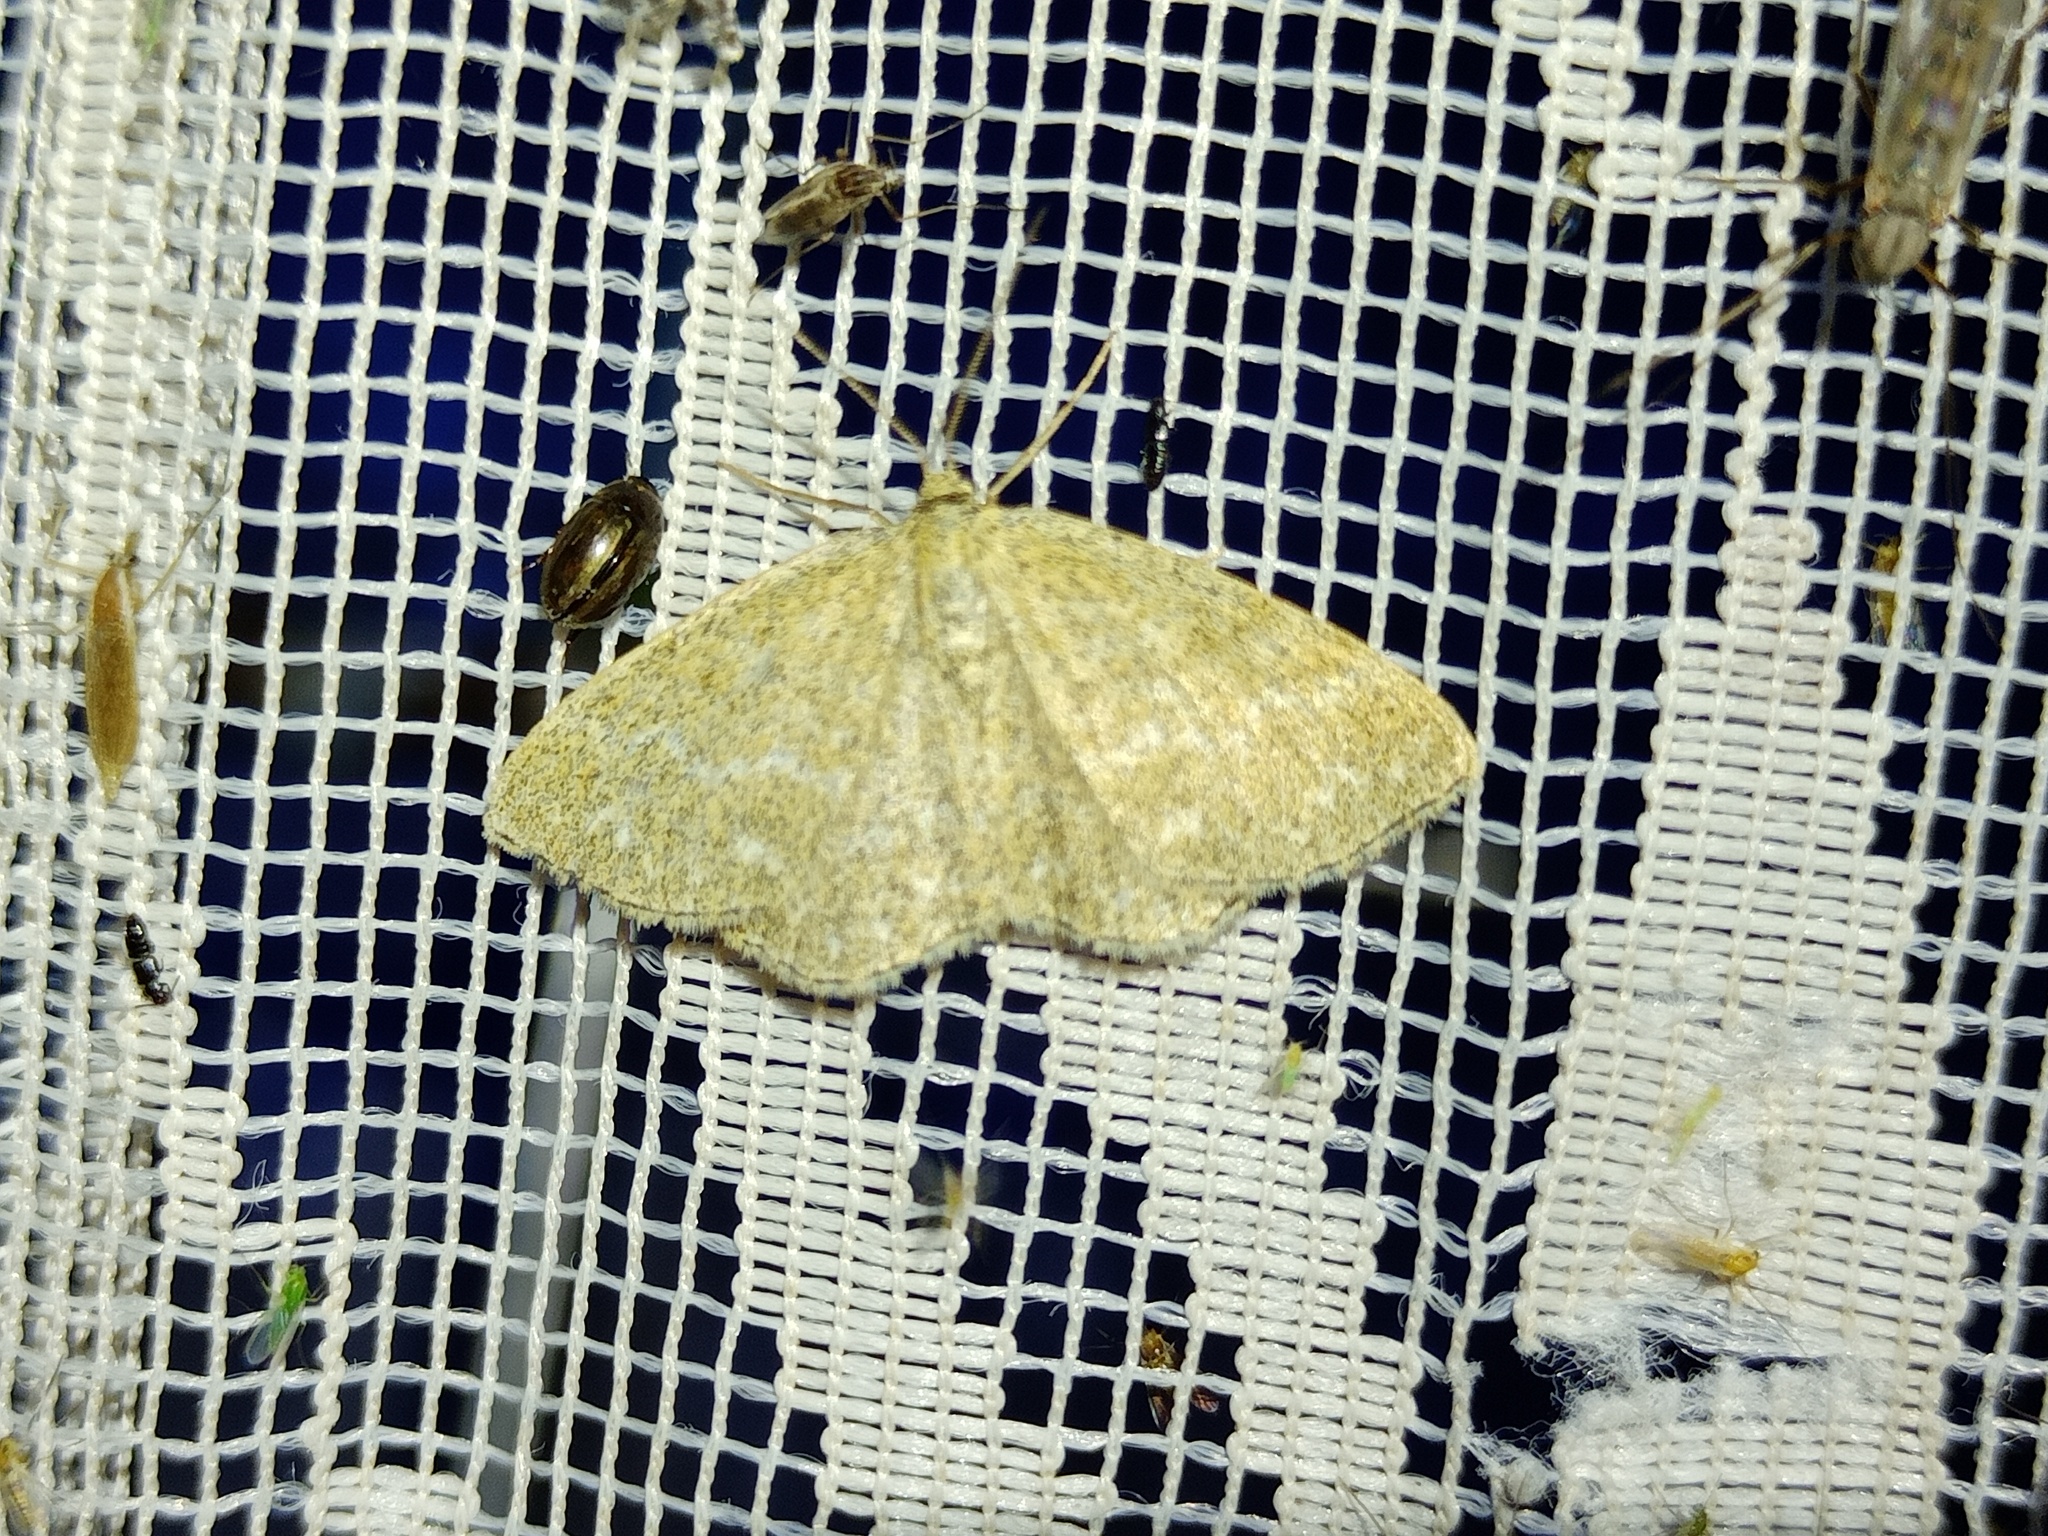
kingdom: Animalia
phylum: Arthropoda
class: Insecta
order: Lepidoptera
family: Geometridae
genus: Scopula
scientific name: Scopula immorata
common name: Lewes wave
